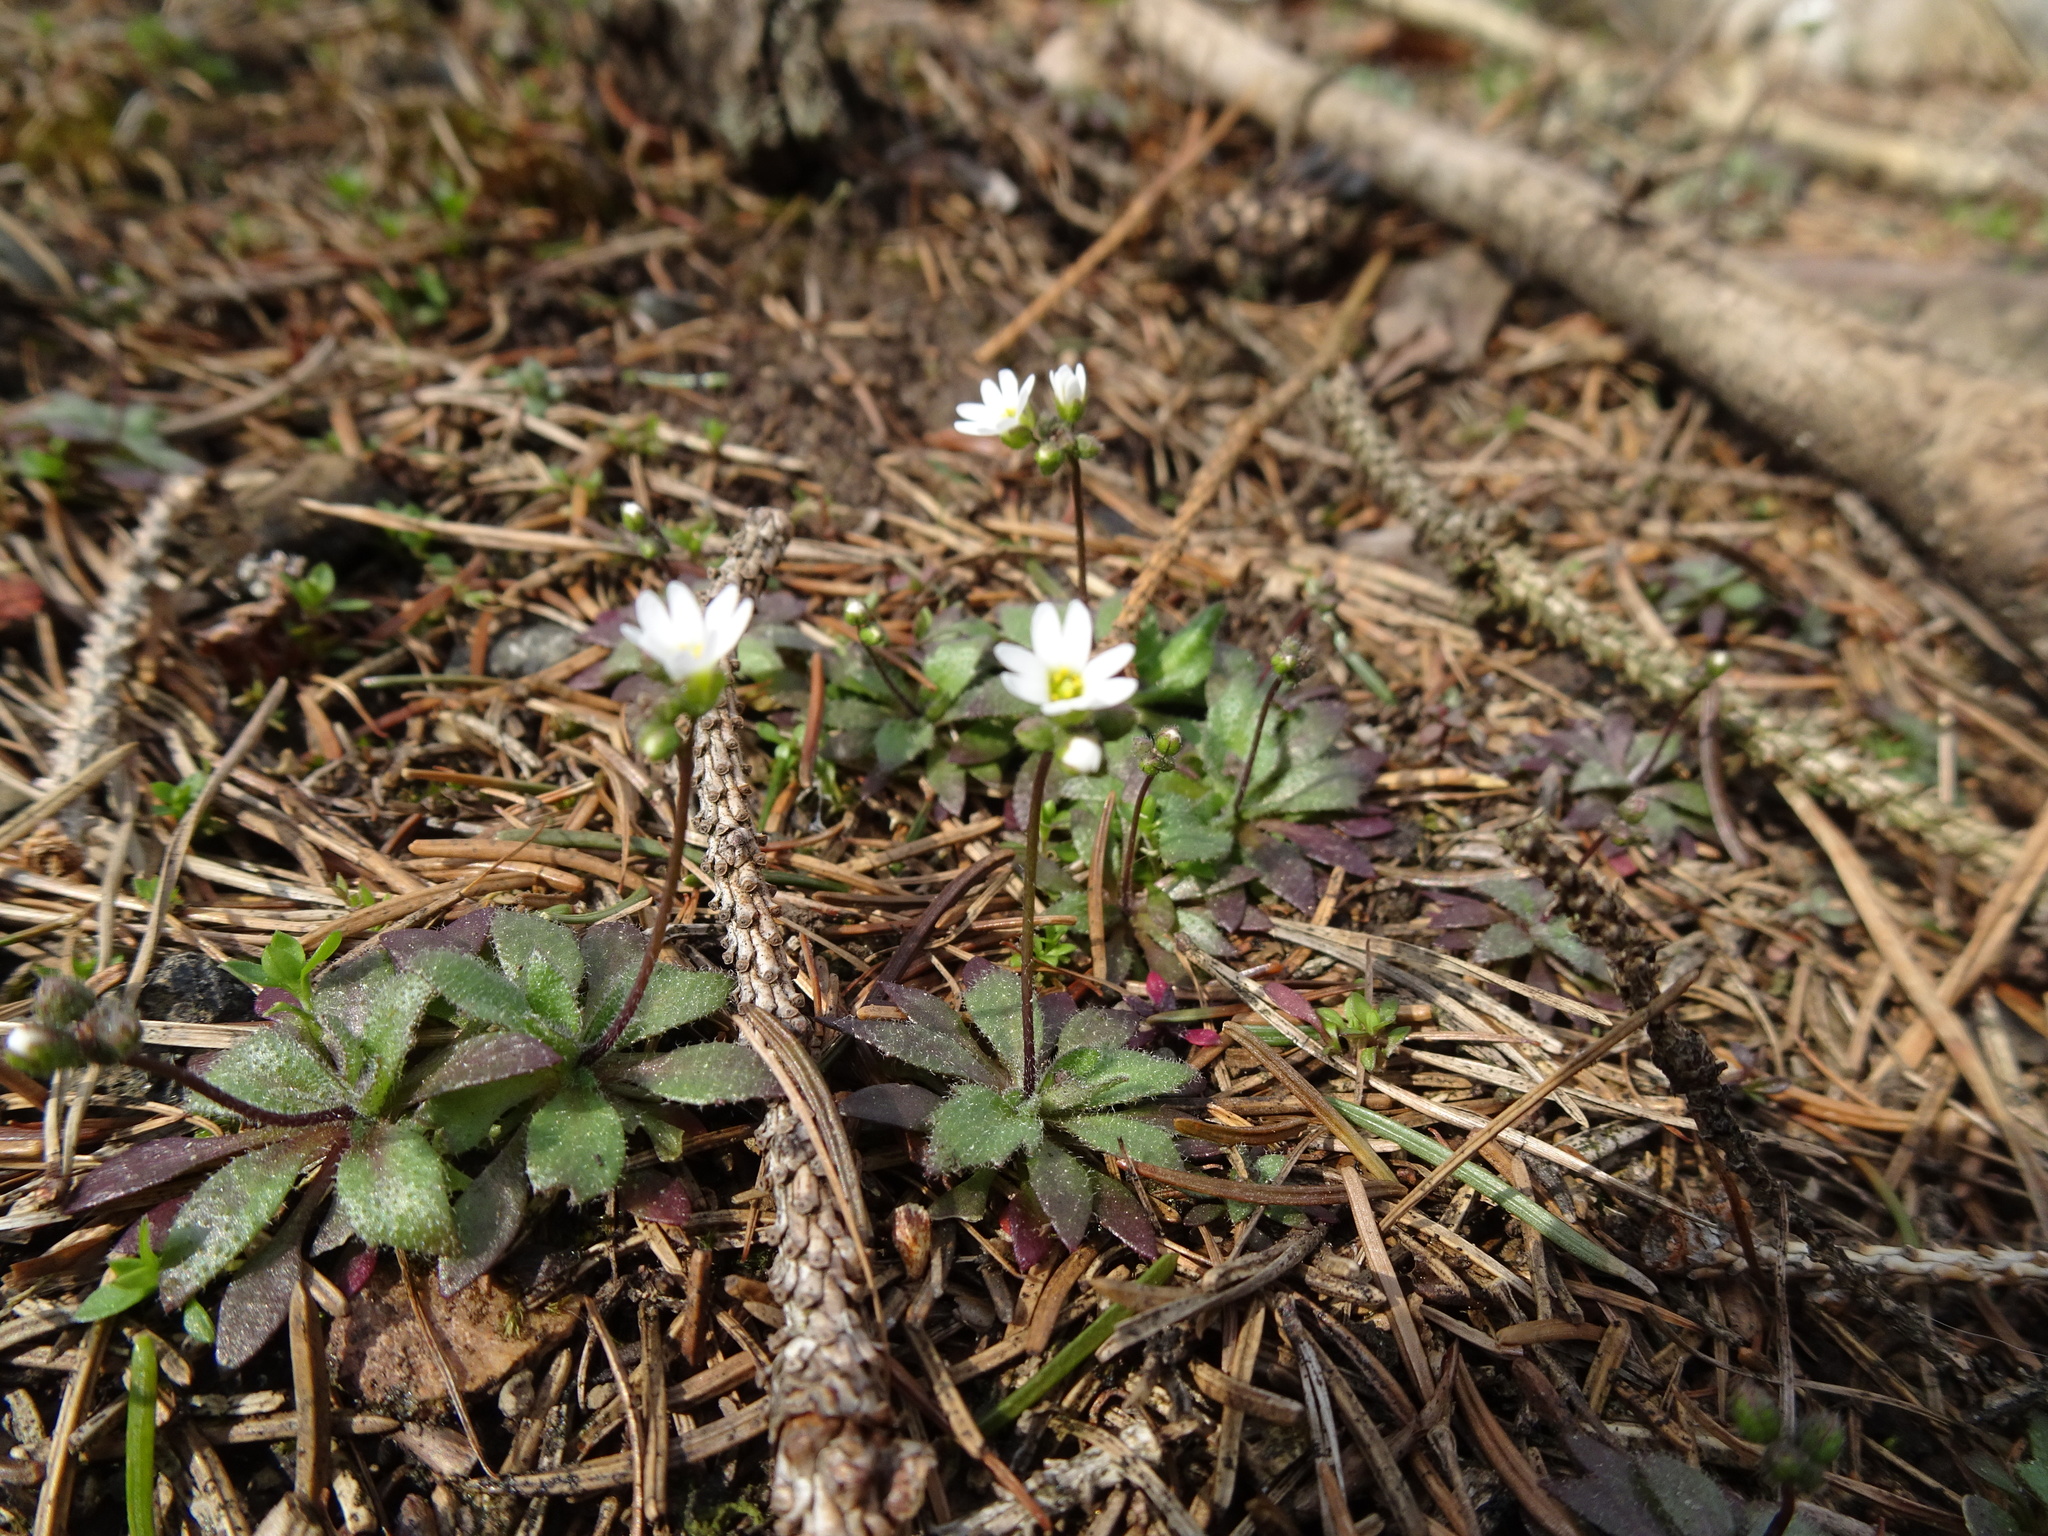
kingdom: Plantae
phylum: Tracheophyta
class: Magnoliopsida
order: Brassicales
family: Brassicaceae
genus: Draba
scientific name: Draba verna
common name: Spring draba
